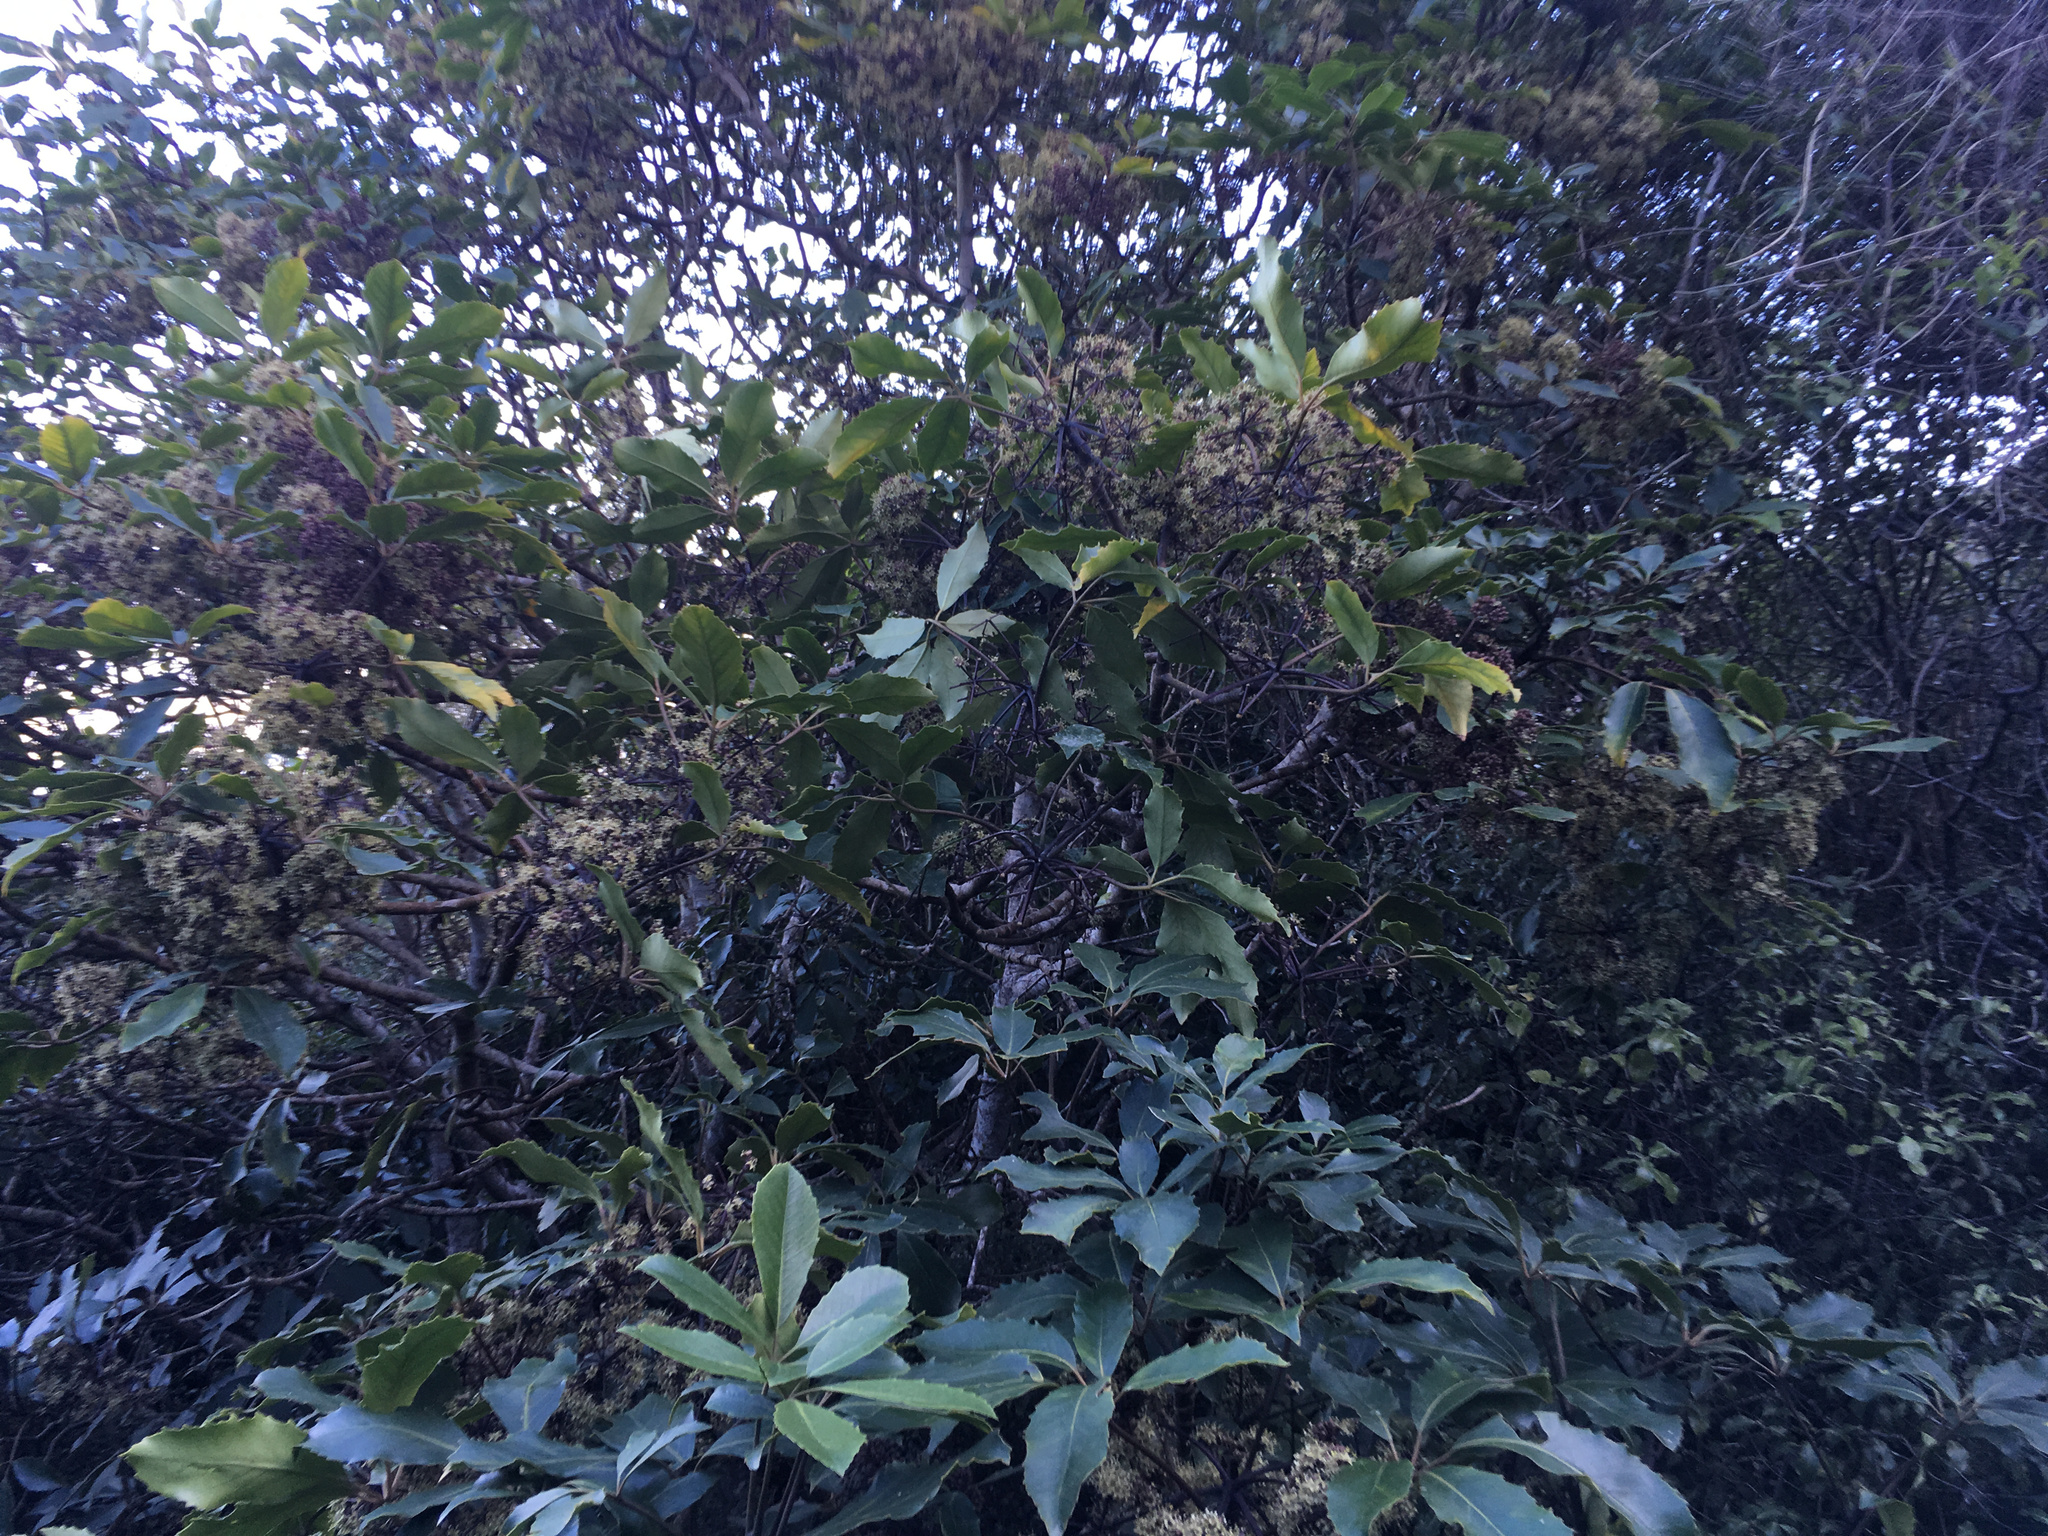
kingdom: Plantae
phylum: Tracheophyta
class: Magnoliopsida
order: Apiales
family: Araliaceae
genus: Neopanax
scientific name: Neopanax arboreus
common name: Five-fingers
